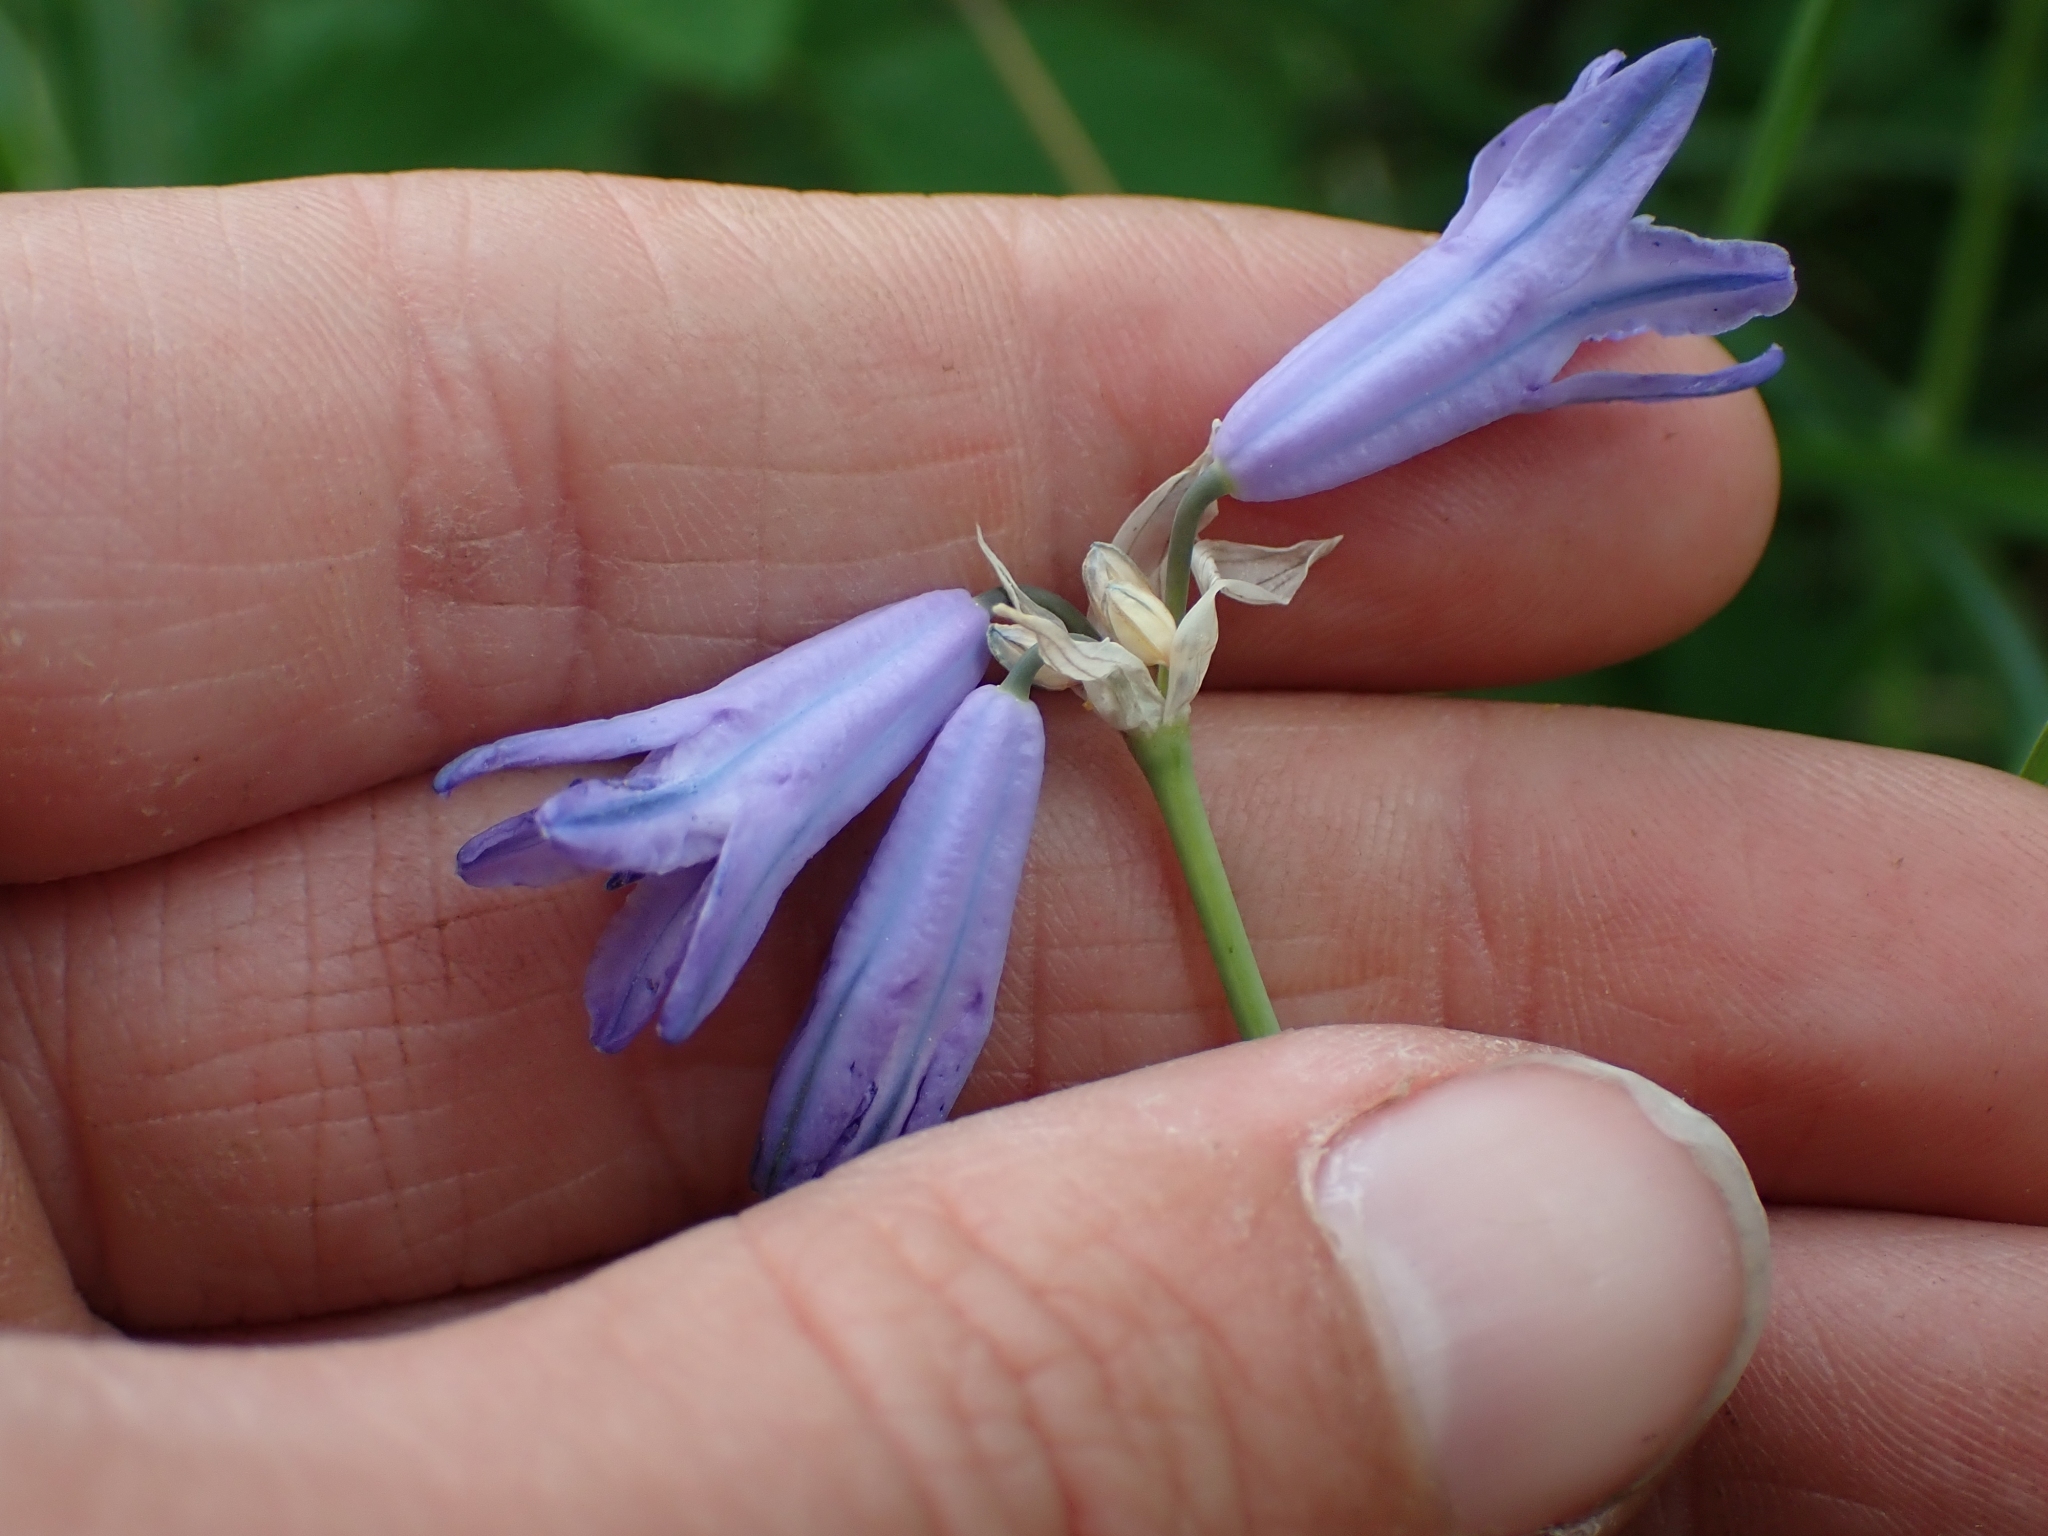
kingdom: Plantae
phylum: Tracheophyta
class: Liliopsida
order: Asparagales
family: Asparagaceae
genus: Triteleia
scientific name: Triteleia grandiflora
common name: Wild hyacinth
